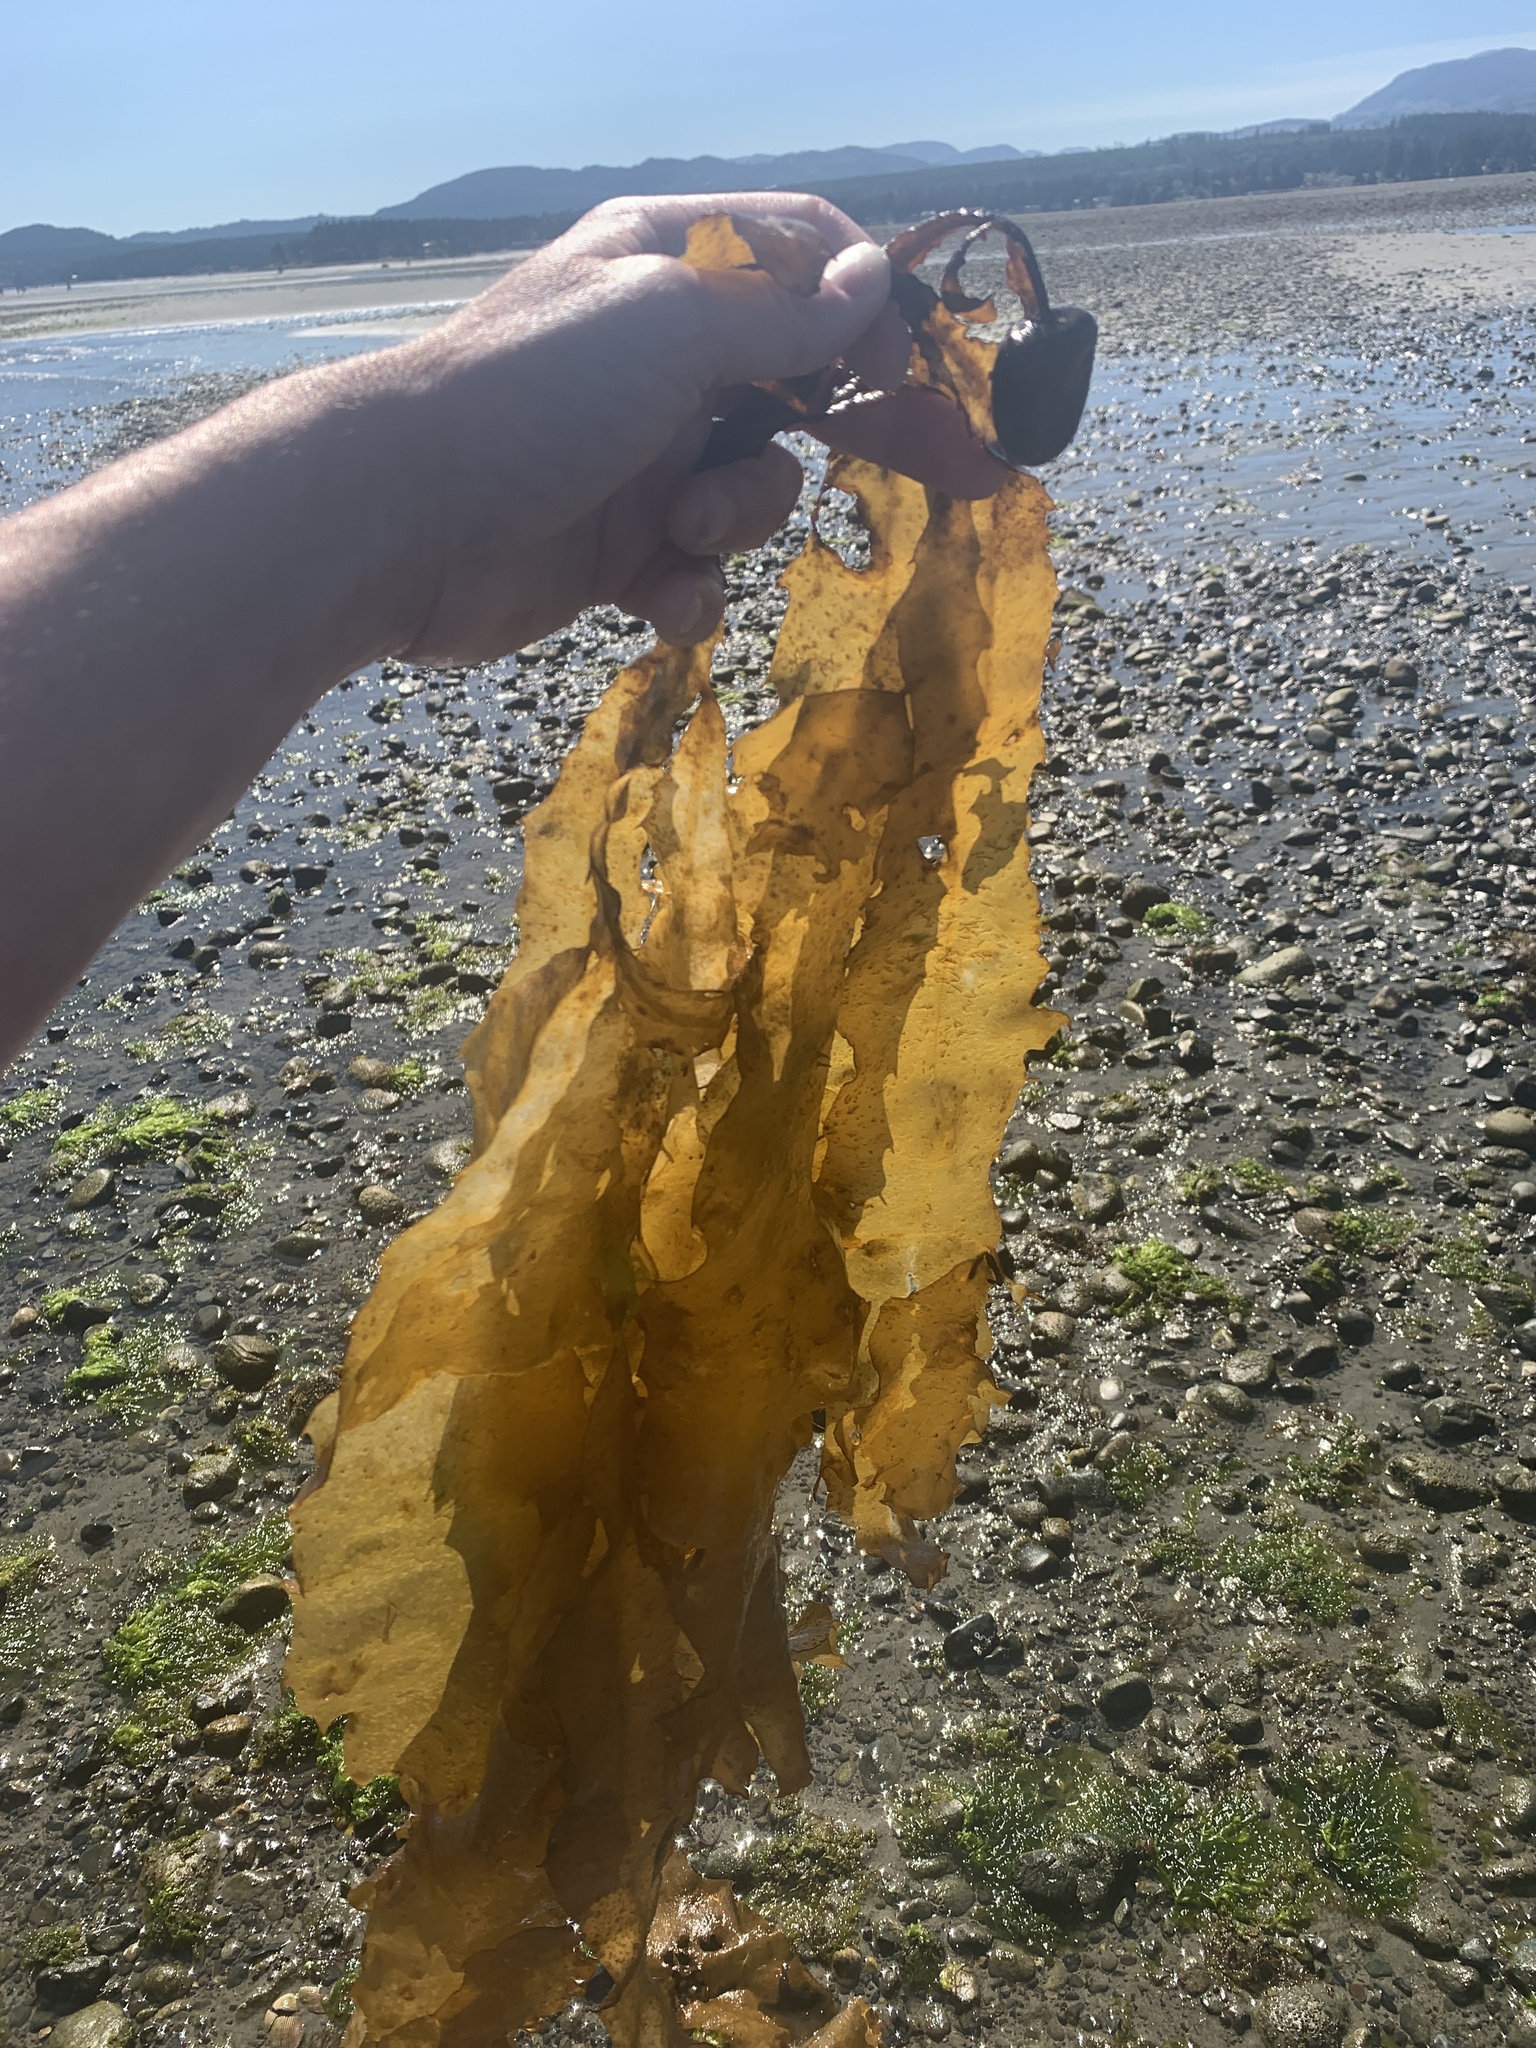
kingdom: Chromista
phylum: Ochrophyta
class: Phaeophyceae
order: Desmarestiales
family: Desmarestiaceae
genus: Desmarestia
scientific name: Desmarestia ligulata
